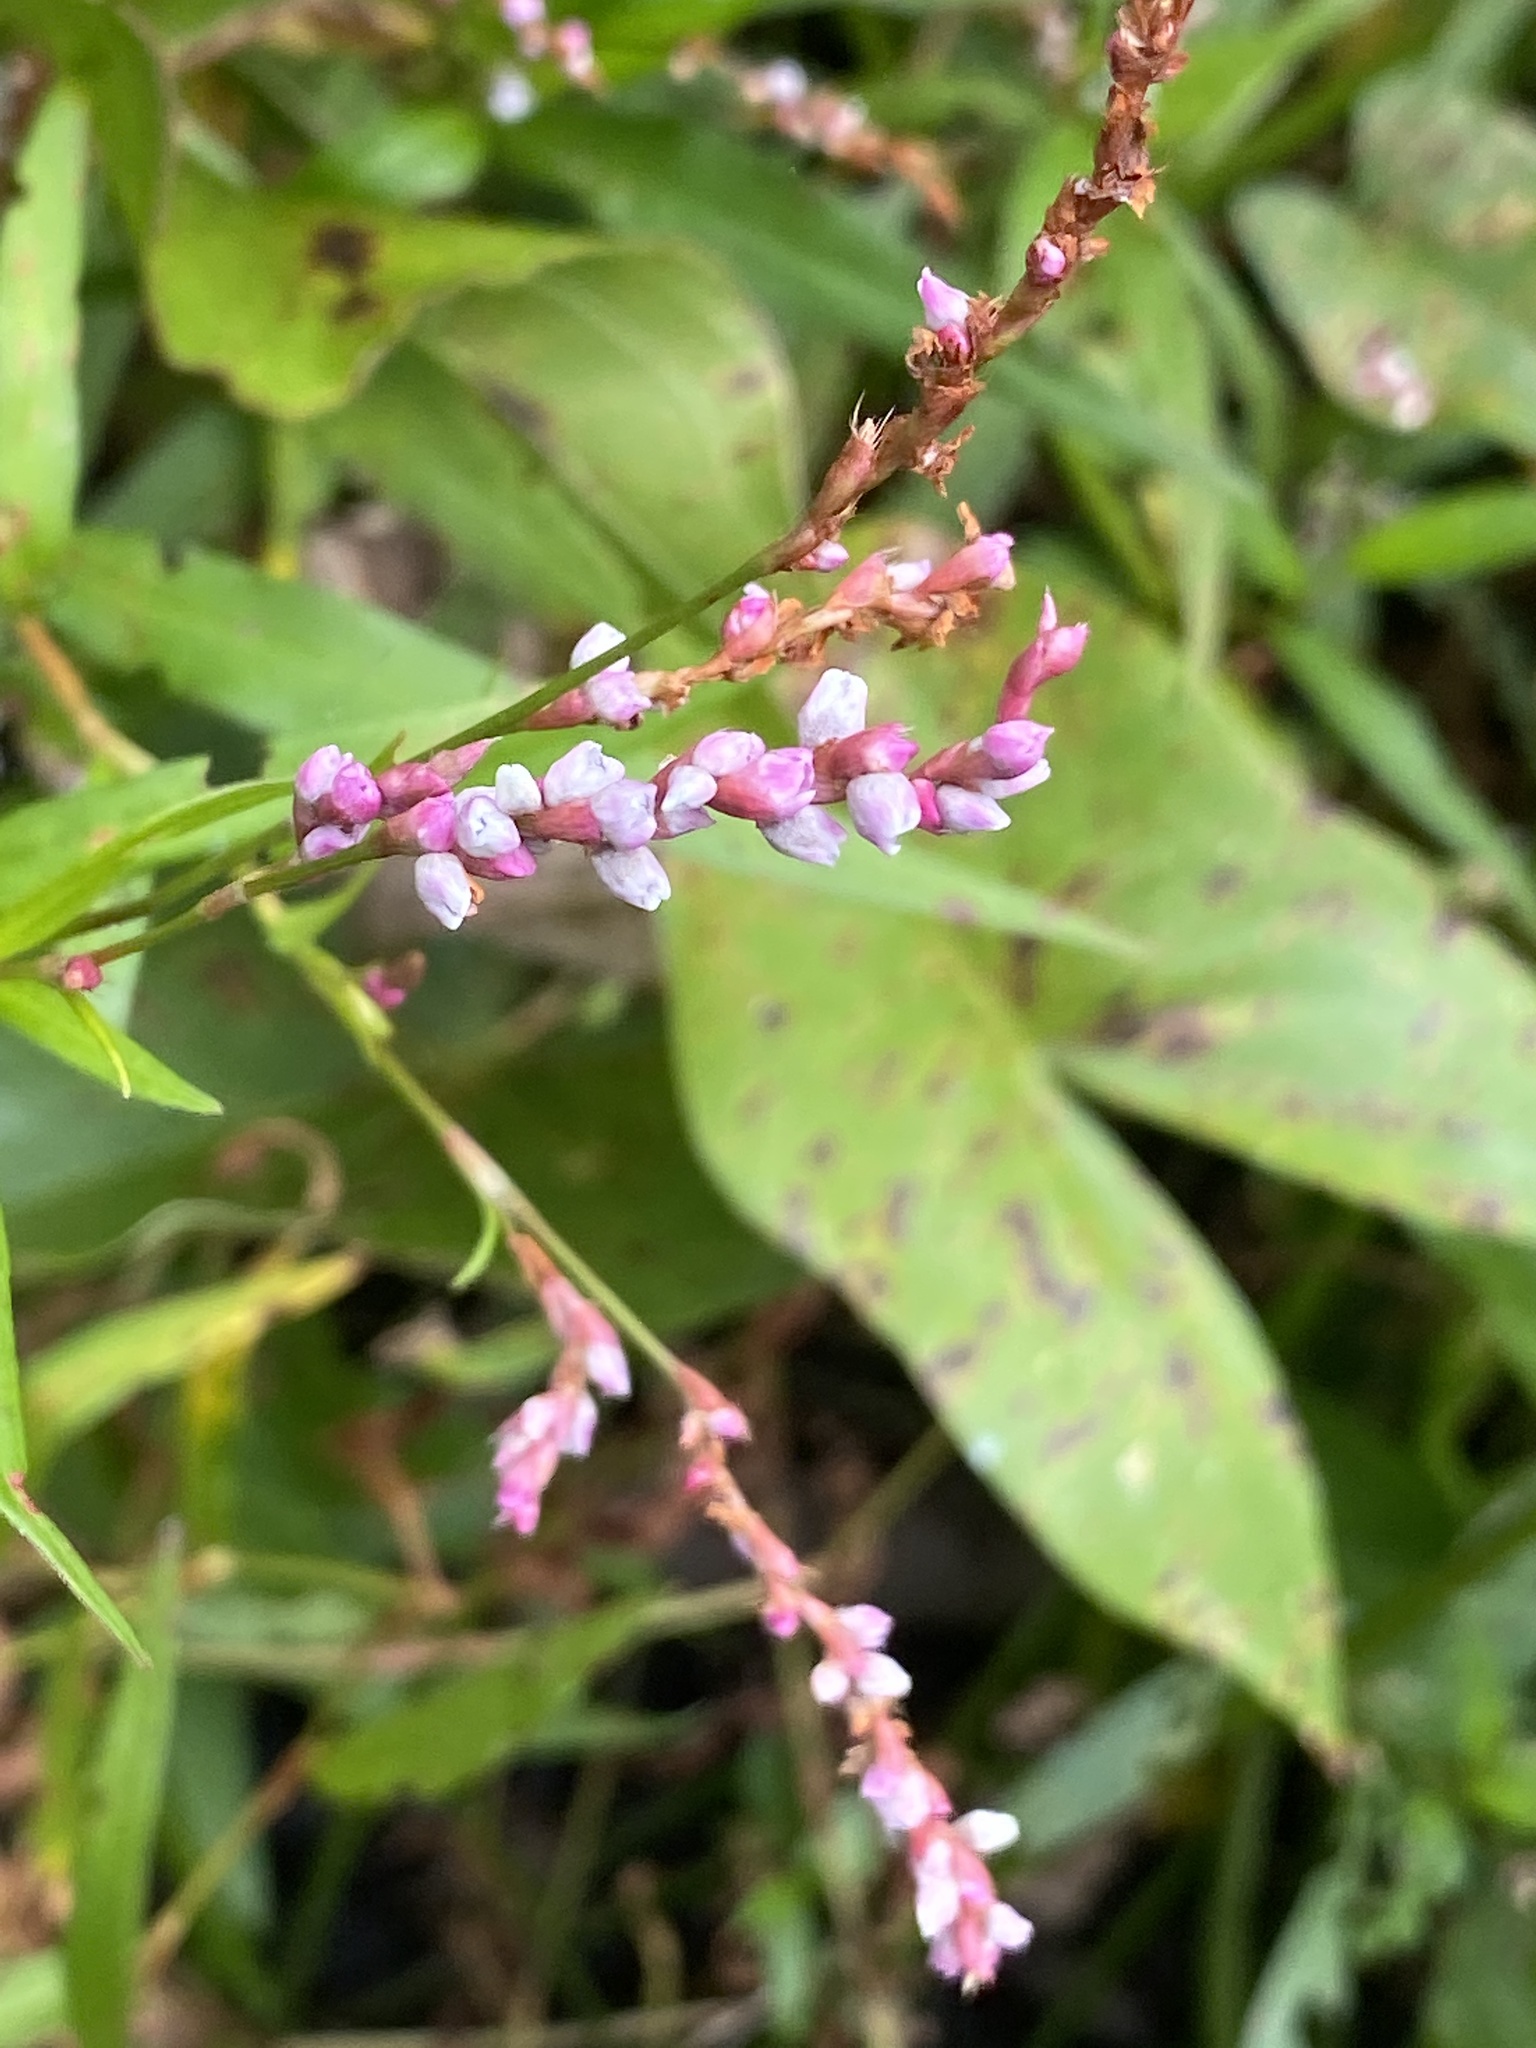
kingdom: Plantae
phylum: Tracheophyta
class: Magnoliopsida
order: Caryophyllales
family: Polygonaceae
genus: Persicaria
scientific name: Persicaria hydropiperoides
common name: Swamp smartweed
